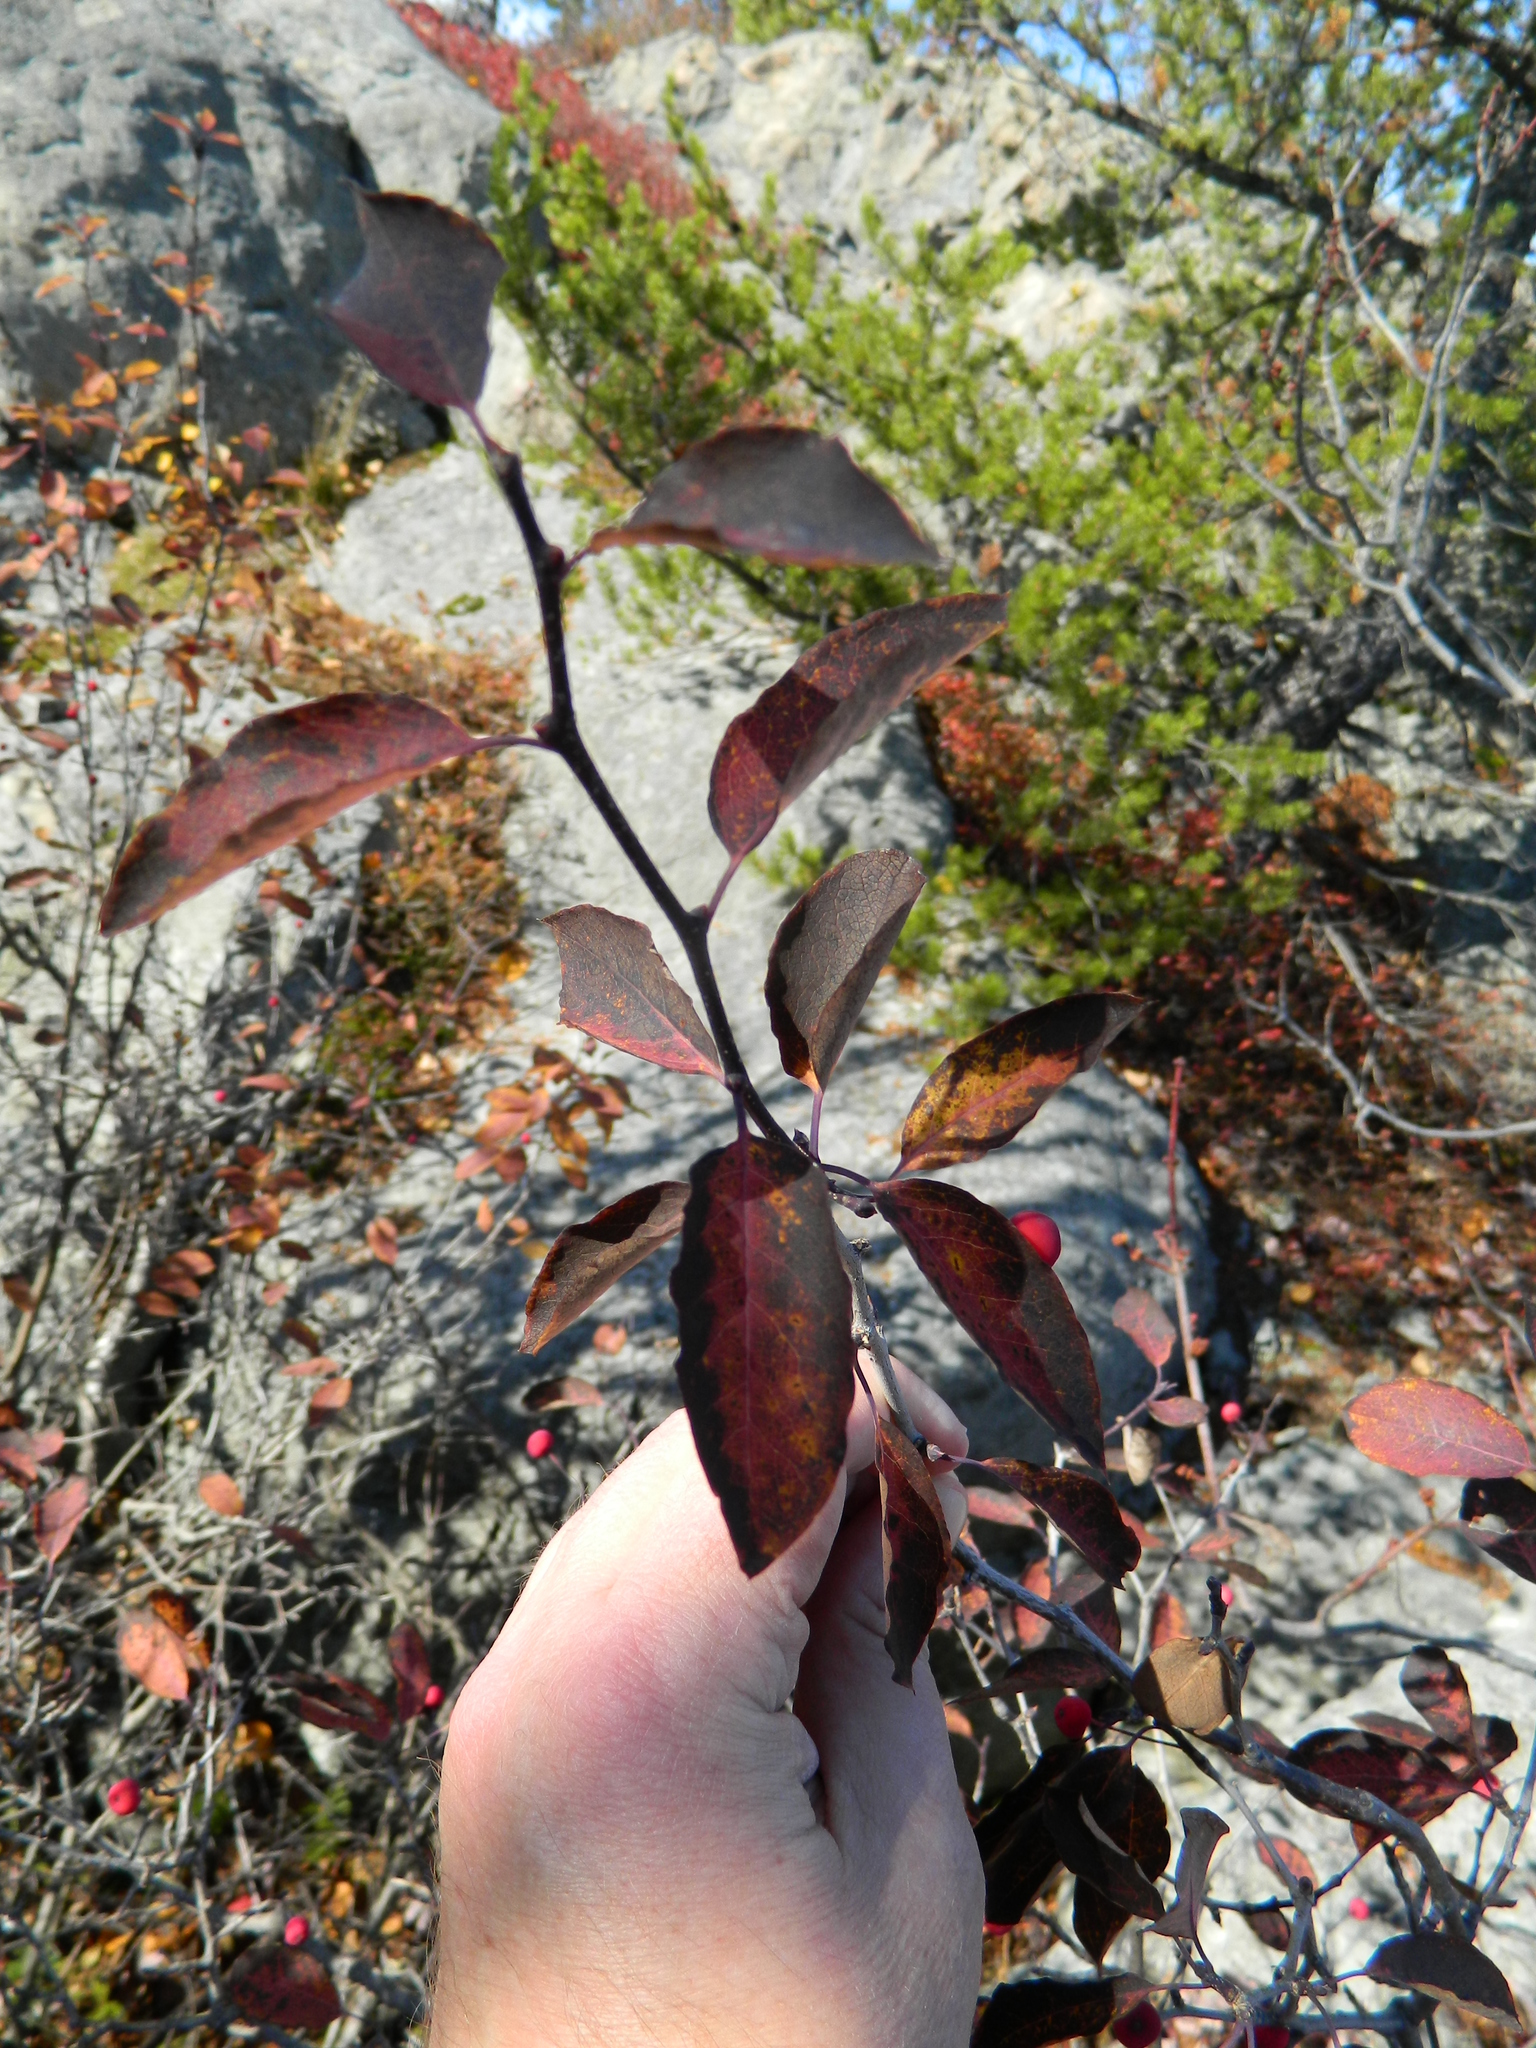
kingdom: Plantae
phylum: Tracheophyta
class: Magnoliopsida
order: Aquifoliales
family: Aquifoliaceae
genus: Ilex
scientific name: Ilex mucronata
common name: Catberry
